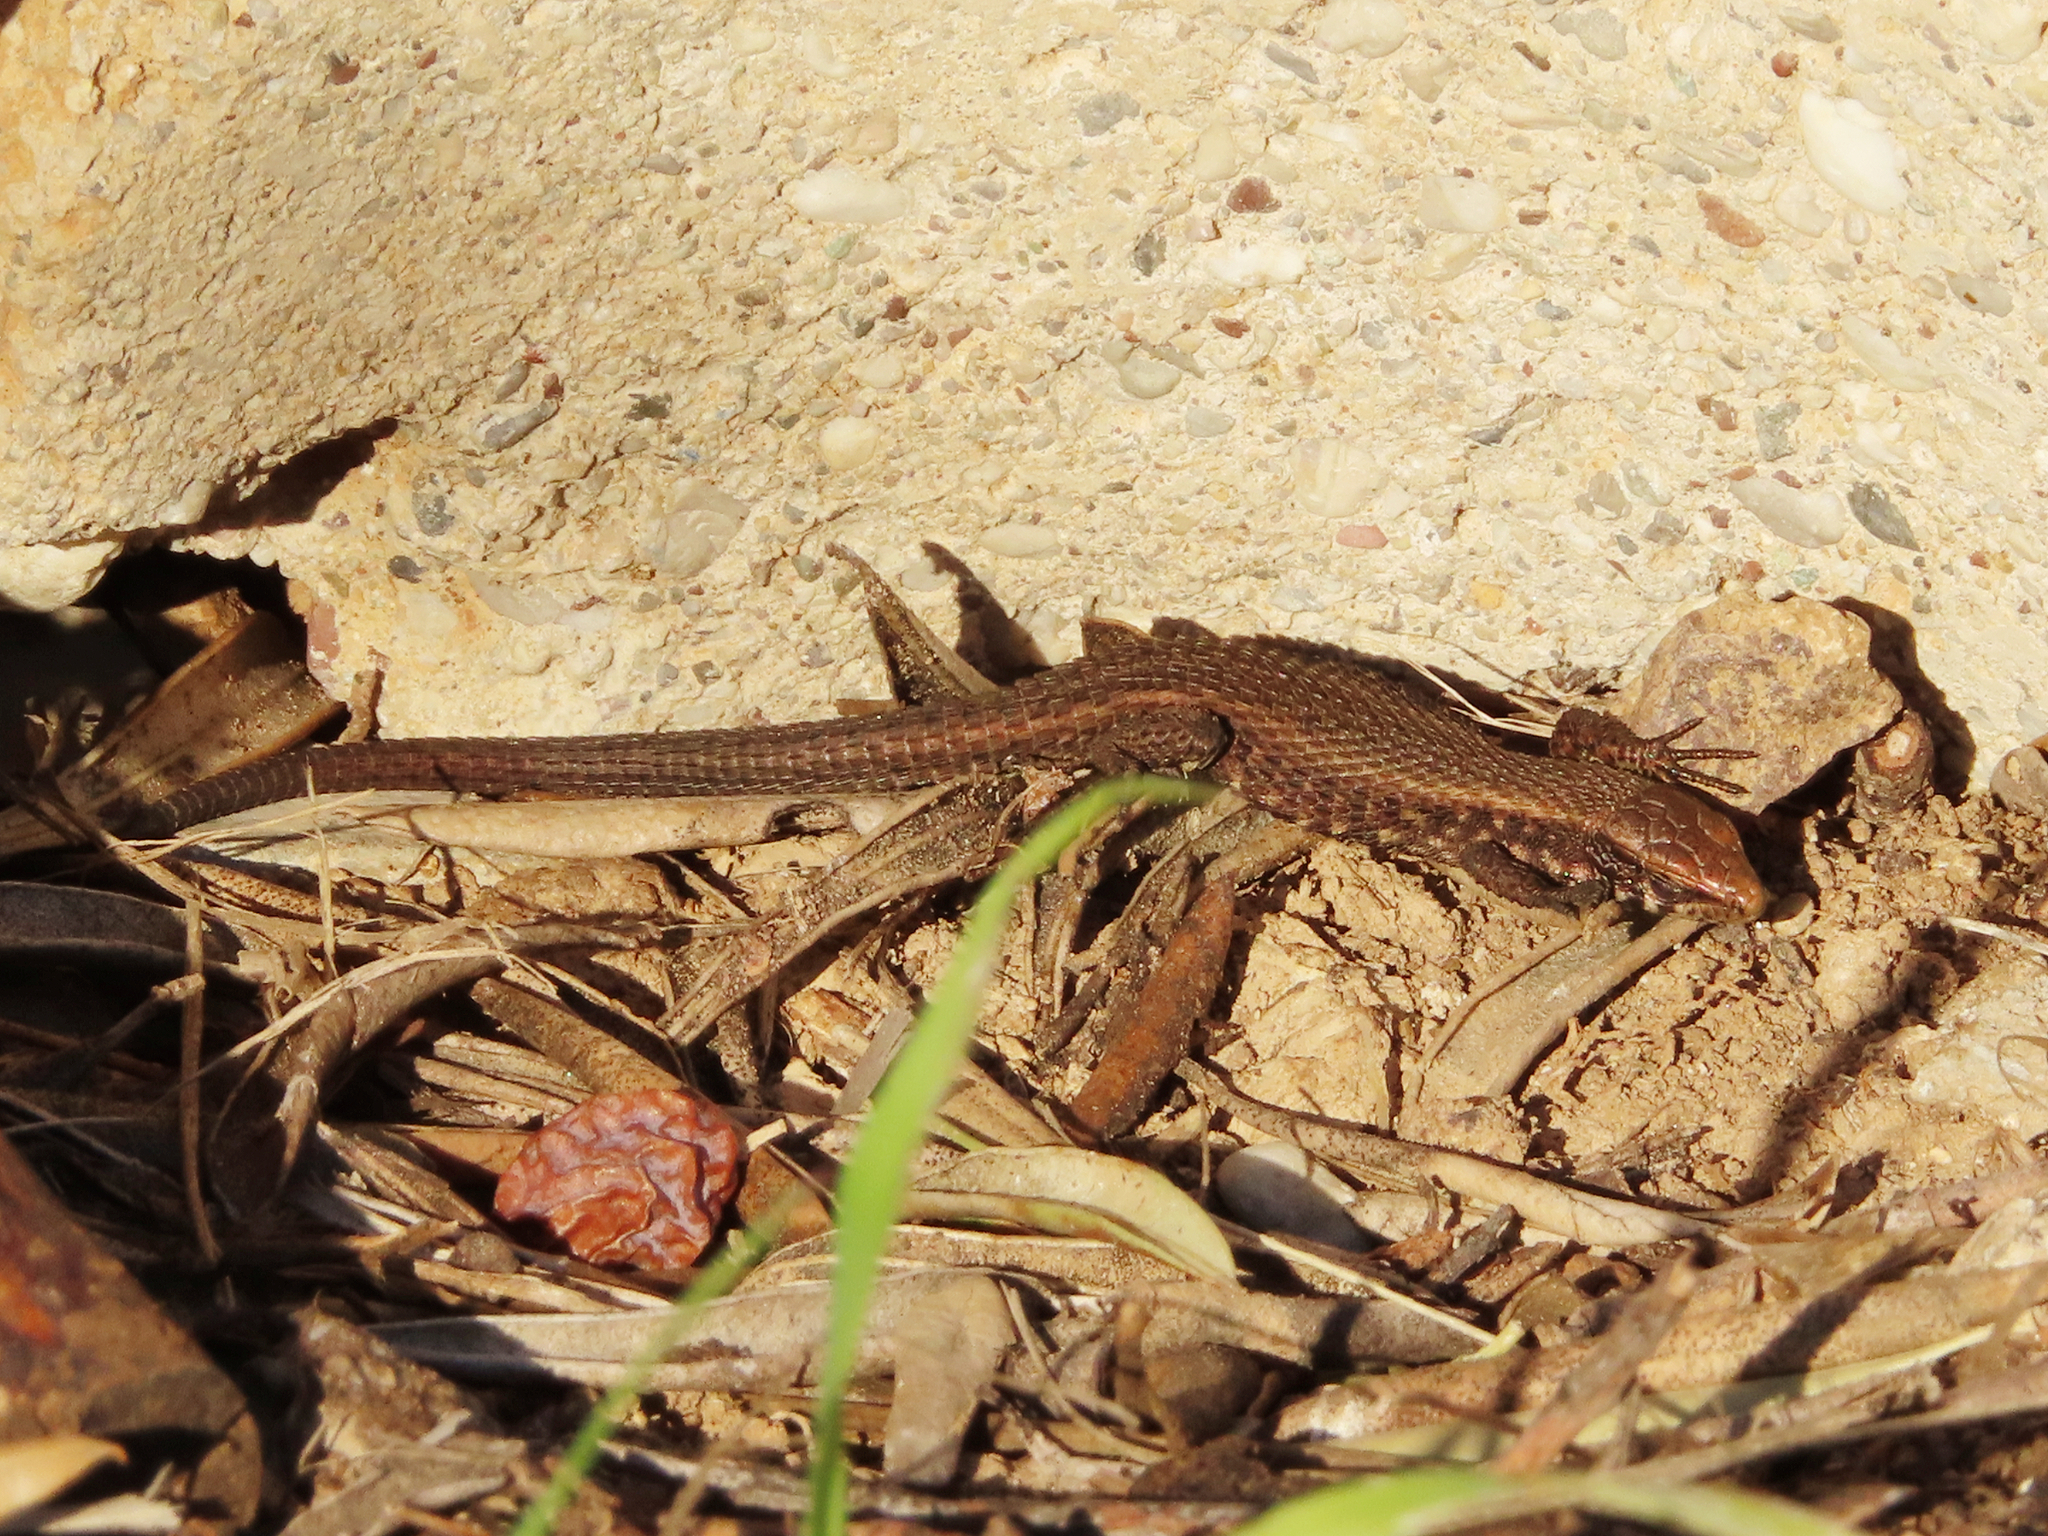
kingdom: Animalia
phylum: Chordata
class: Squamata
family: Lacertidae
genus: Algyroides
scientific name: Algyroides moreoticus
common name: Greek algyroides
